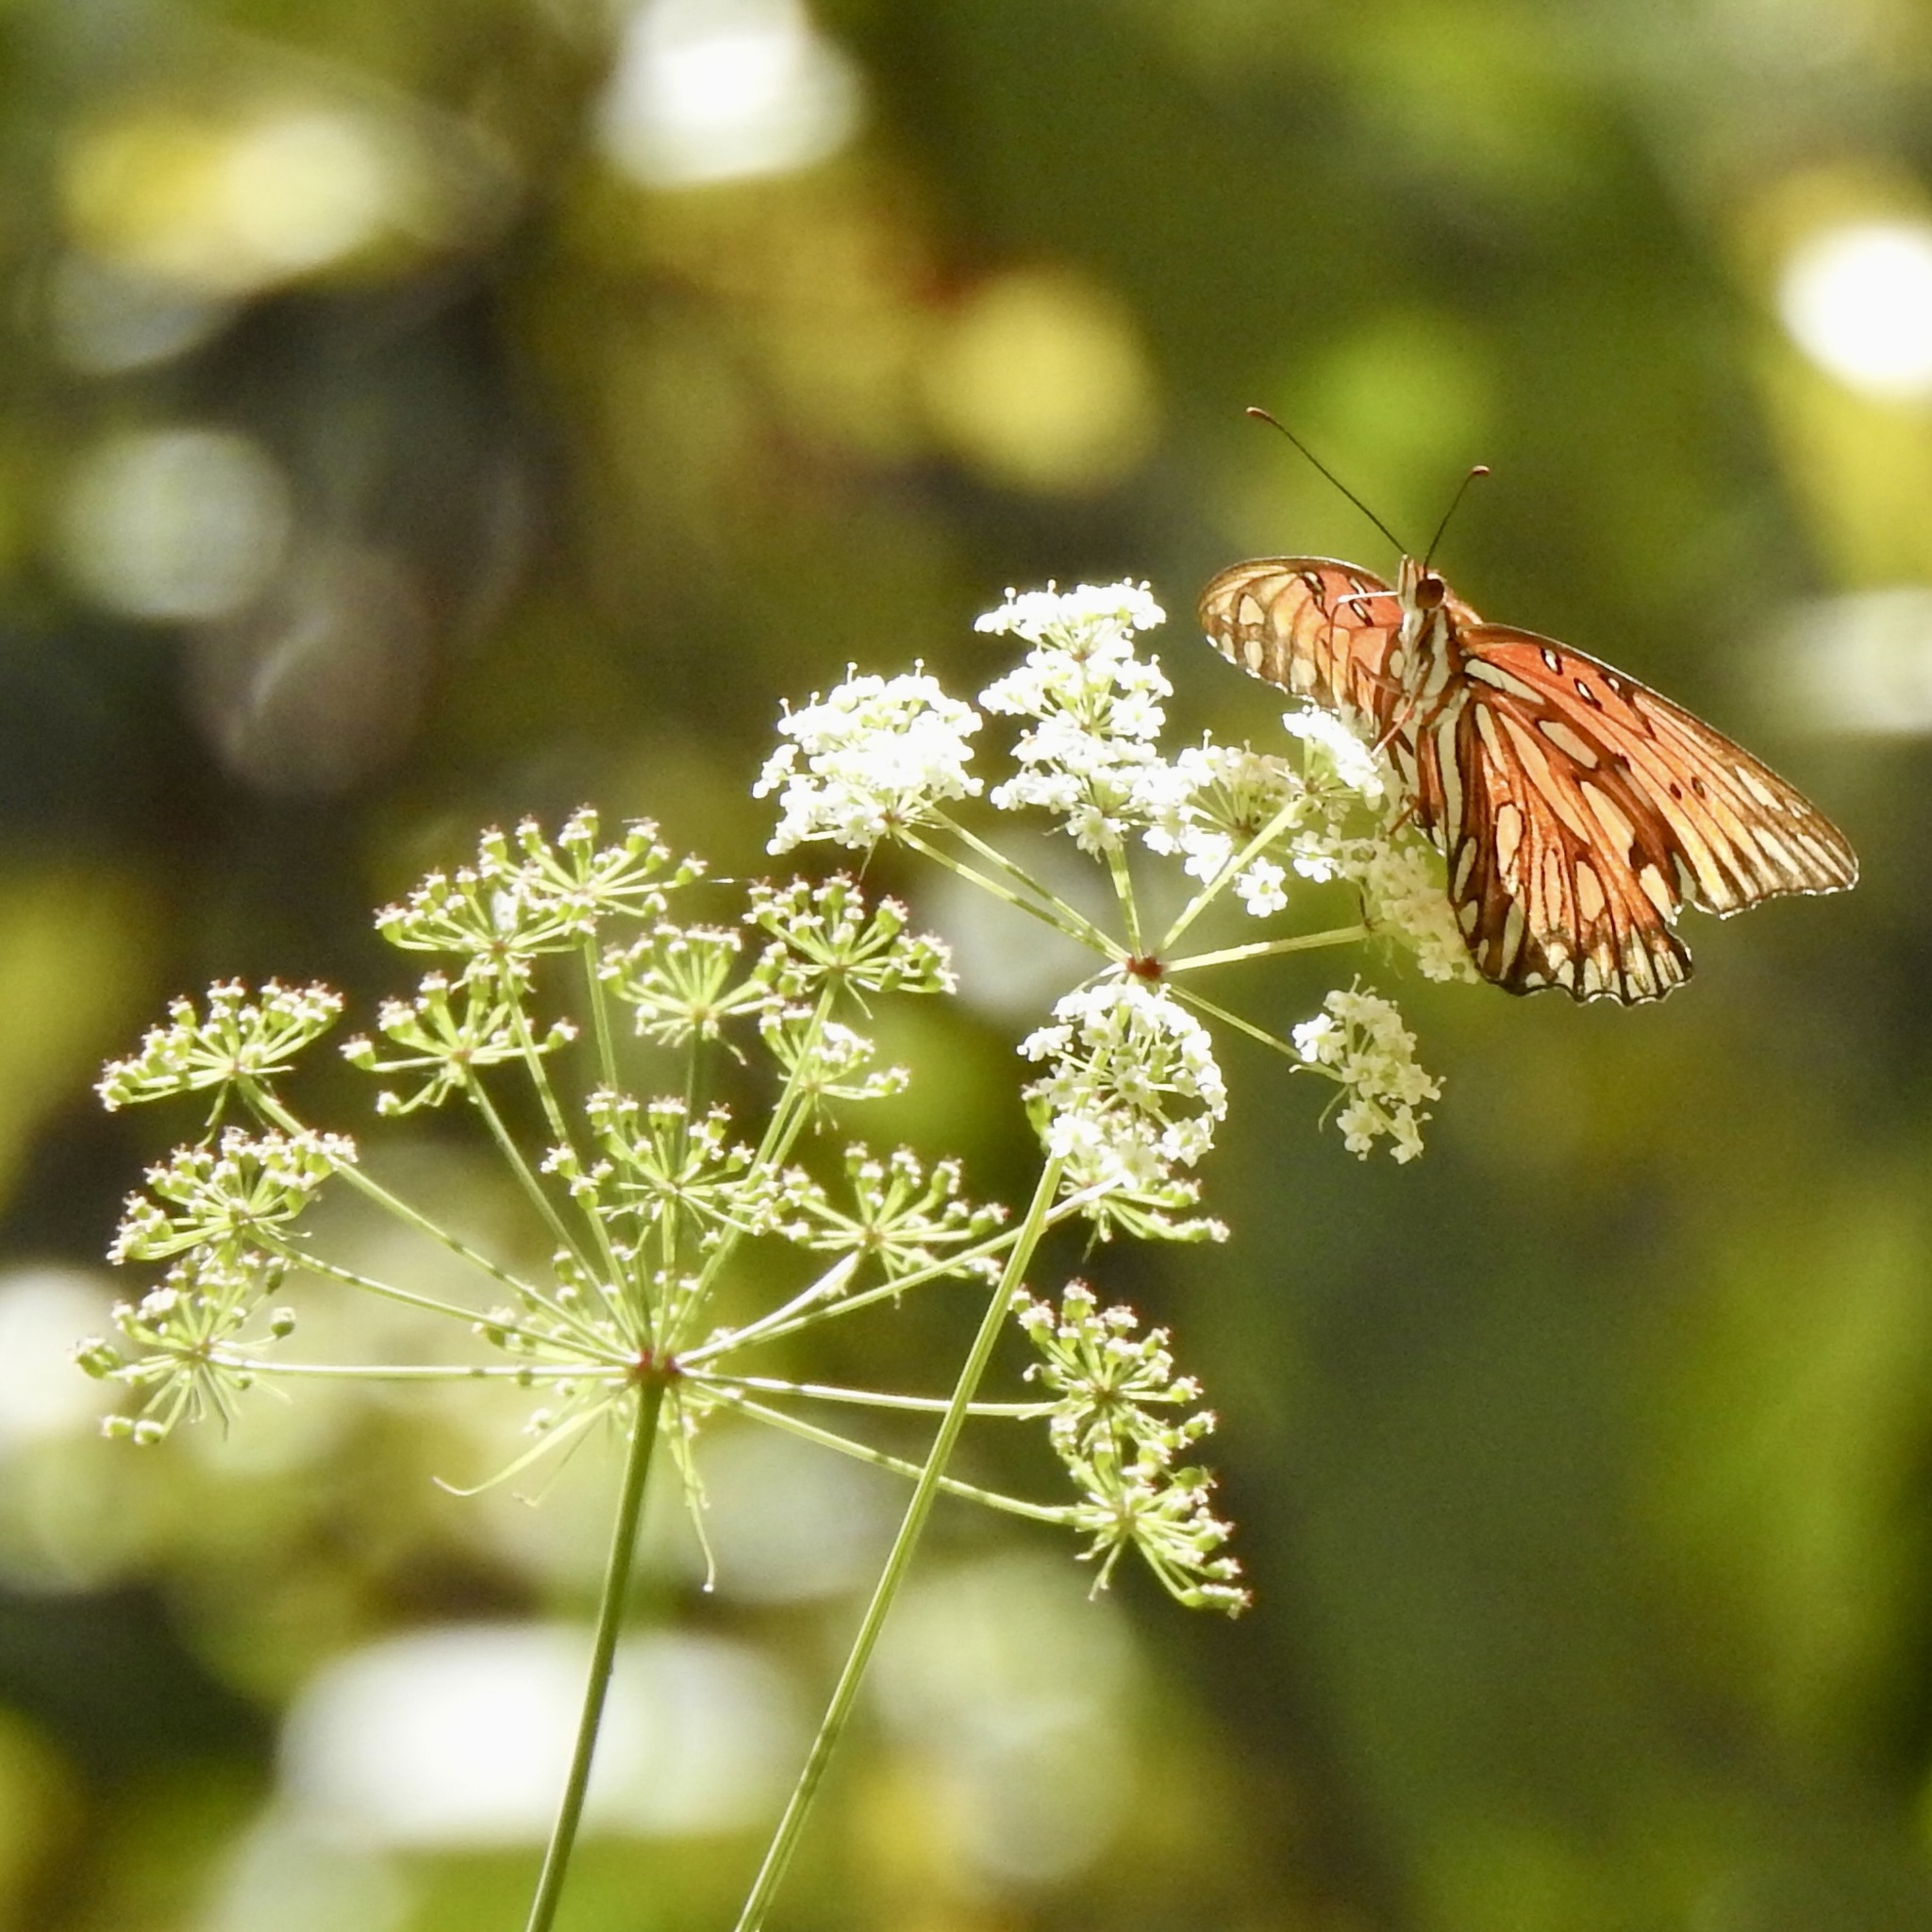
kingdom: Animalia
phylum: Arthropoda
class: Insecta
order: Lepidoptera
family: Nymphalidae
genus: Dione
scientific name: Dione vanillae
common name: Gulf fritillary
